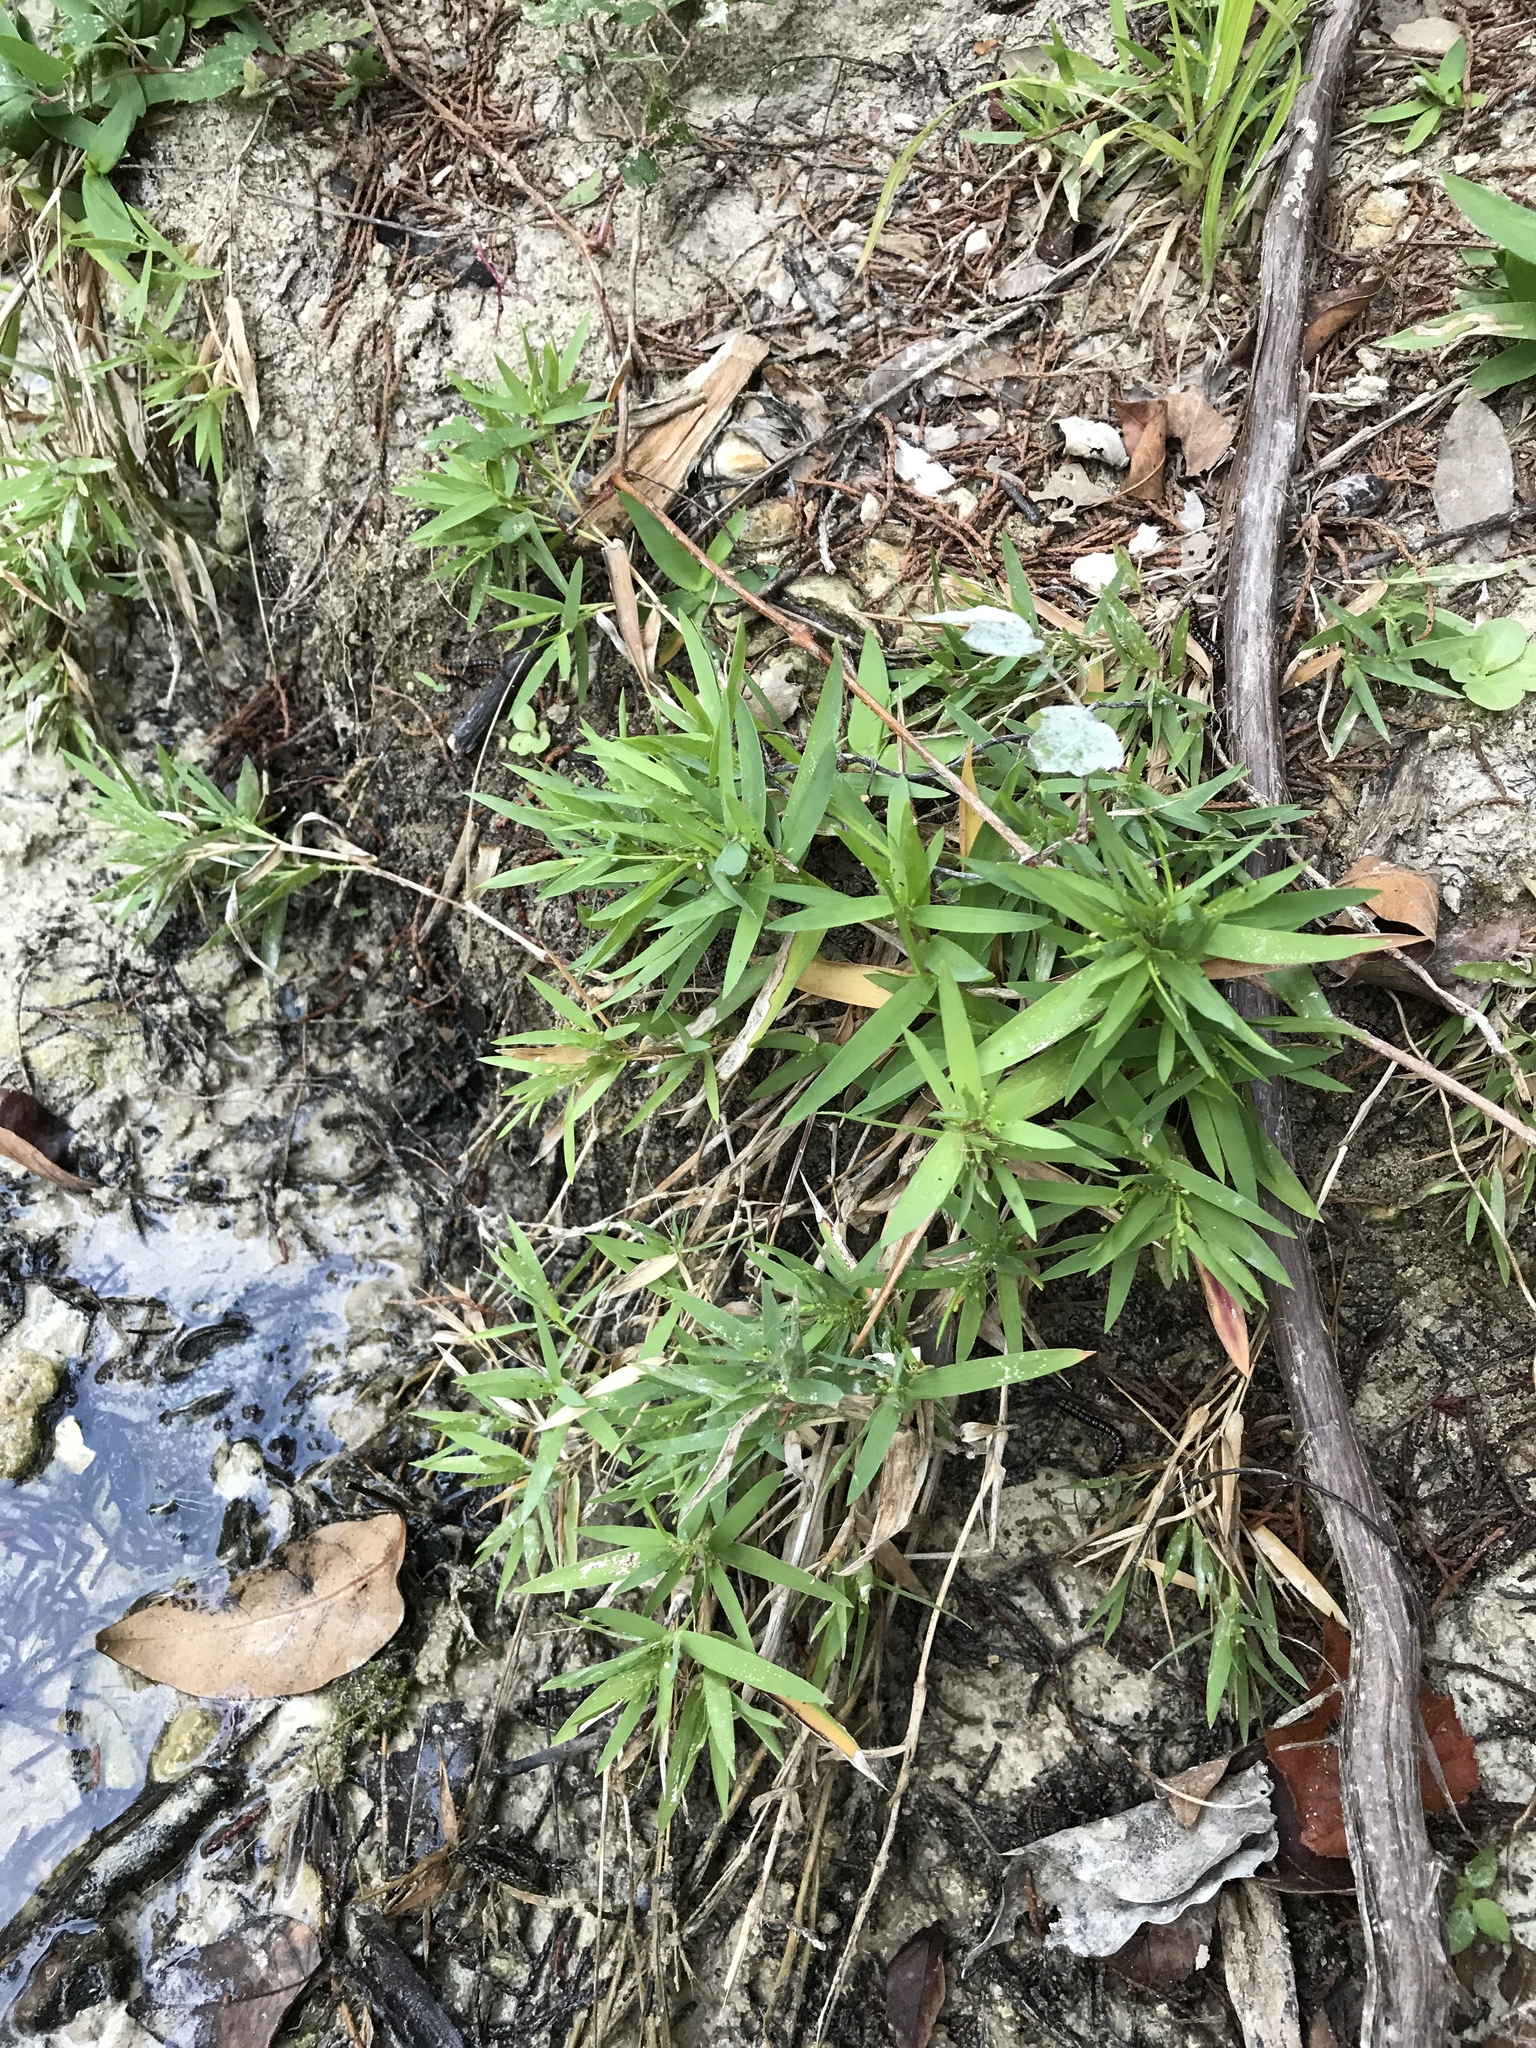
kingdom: Plantae
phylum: Tracheophyta
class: Liliopsida
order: Poales
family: Poaceae
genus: Dichanthelium
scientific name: Dichanthelium oligosanthes
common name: Few-anther obscuregrass
